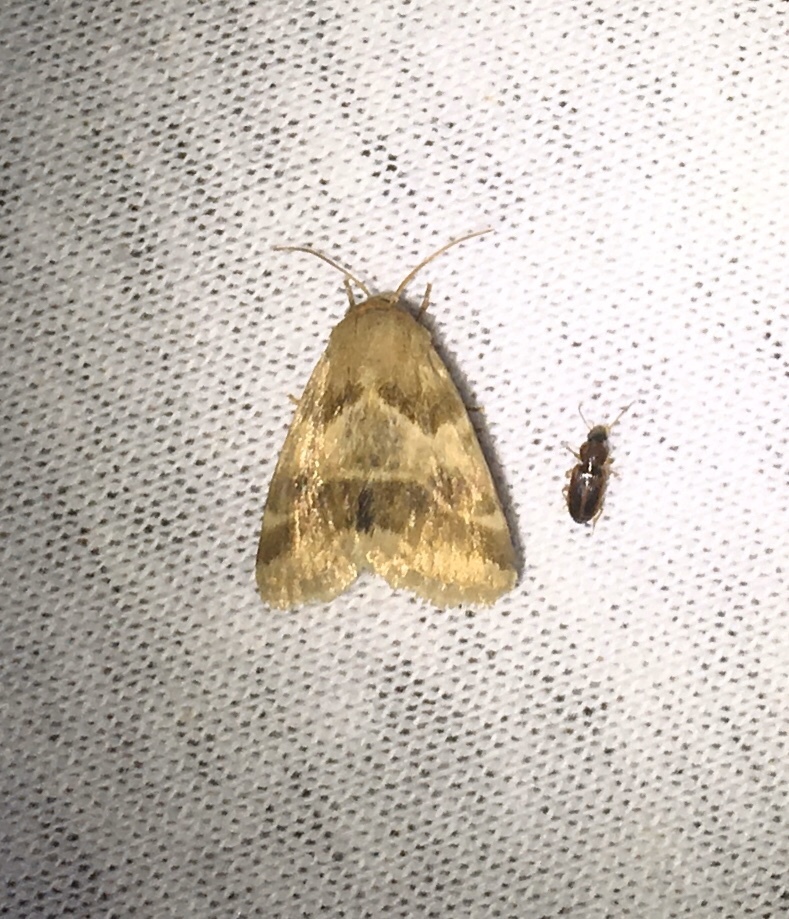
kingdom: Animalia
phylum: Arthropoda
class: Insecta
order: Lepidoptera
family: Noctuidae
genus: Schinia
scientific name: Schinia lynx
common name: Lynx flower moth
